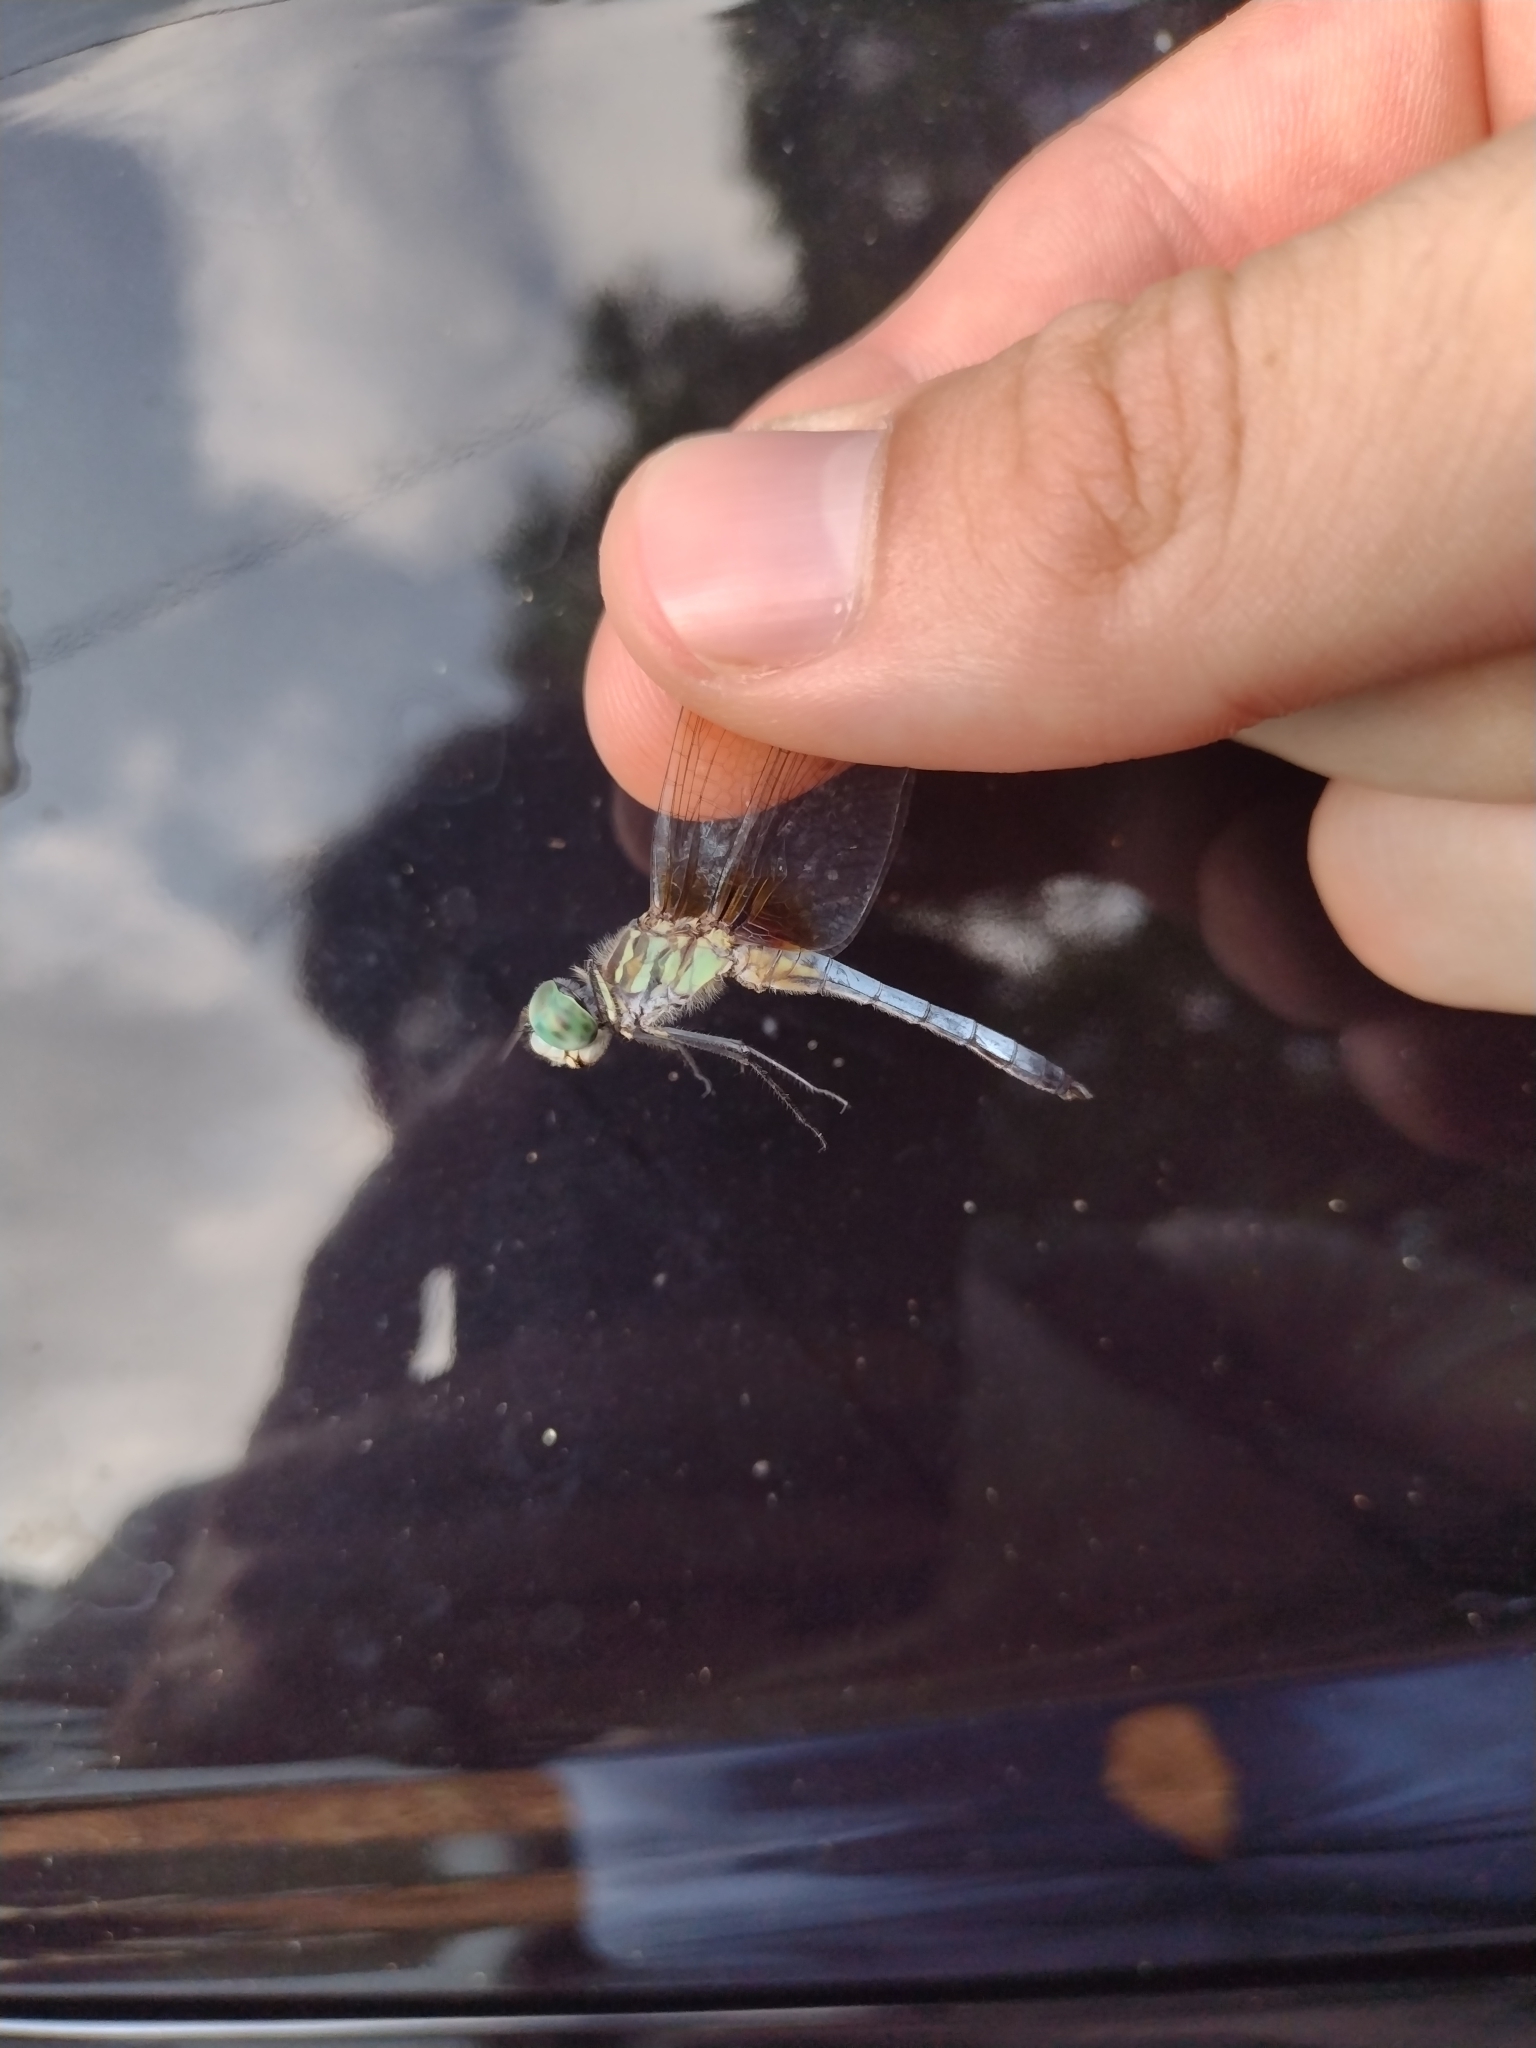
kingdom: Animalia
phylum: Arthropoda
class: Insecta
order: Odonata
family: Libellulidae
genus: Pachydiplax
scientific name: Pachydiplax longipennis
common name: Blue dasher
